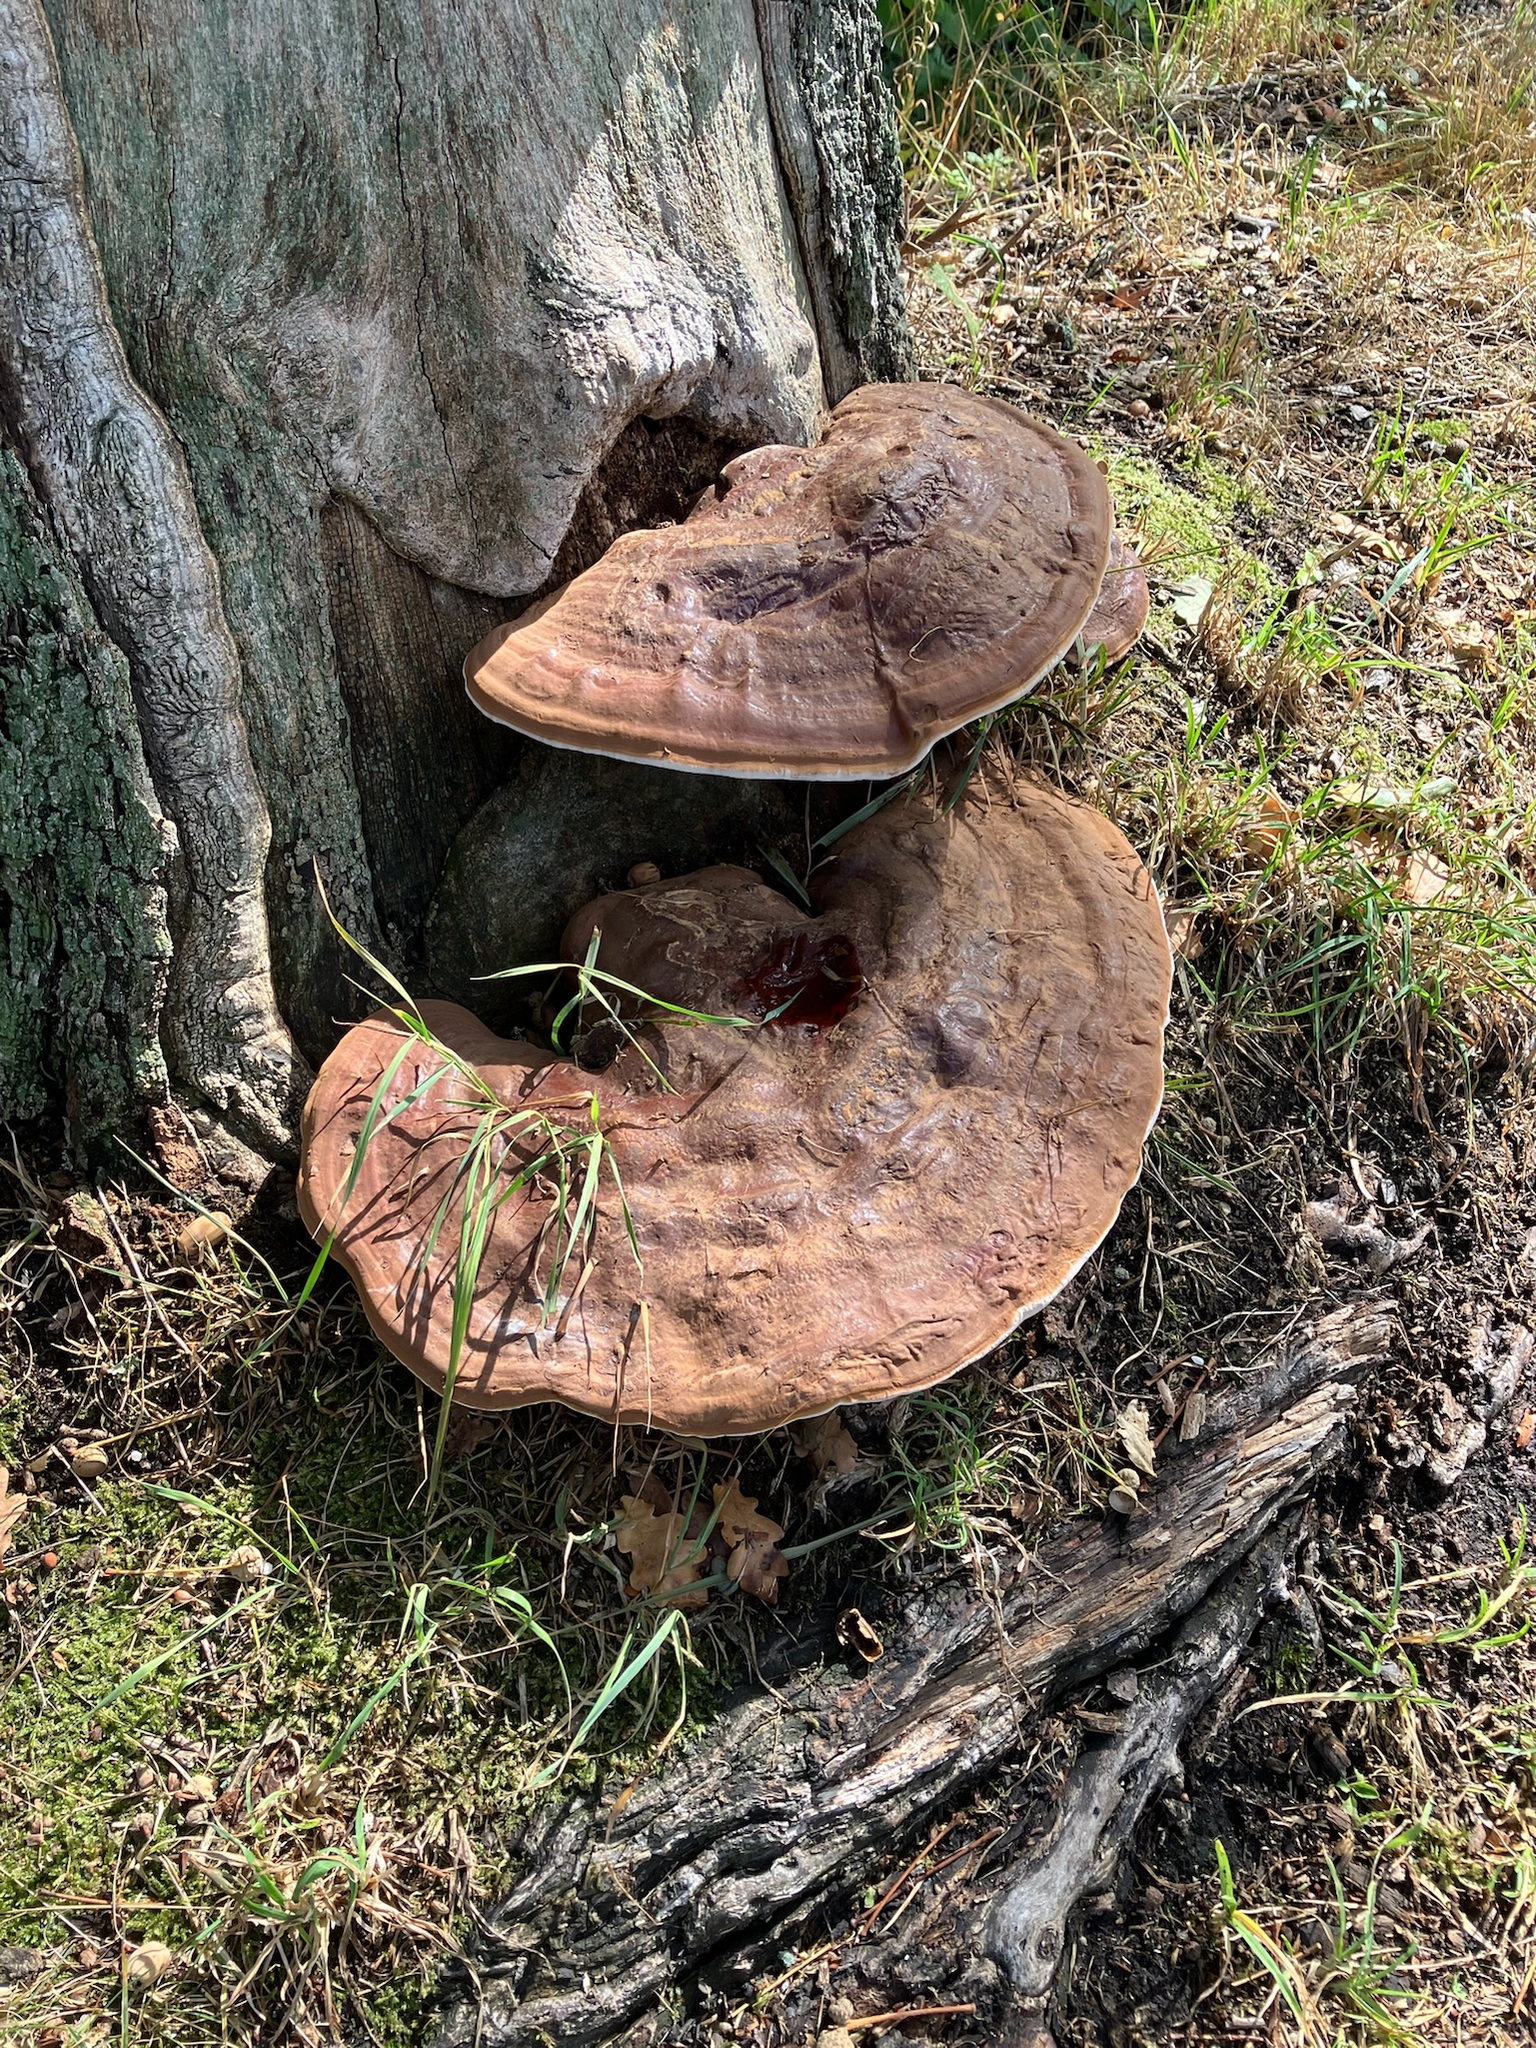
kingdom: Fungi
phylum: Basidiomycota
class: Agaricomycetes
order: Polyporales
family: Polyporaceae
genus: Ganoderma
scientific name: Ganoderma applanatum
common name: Artist's bracket
